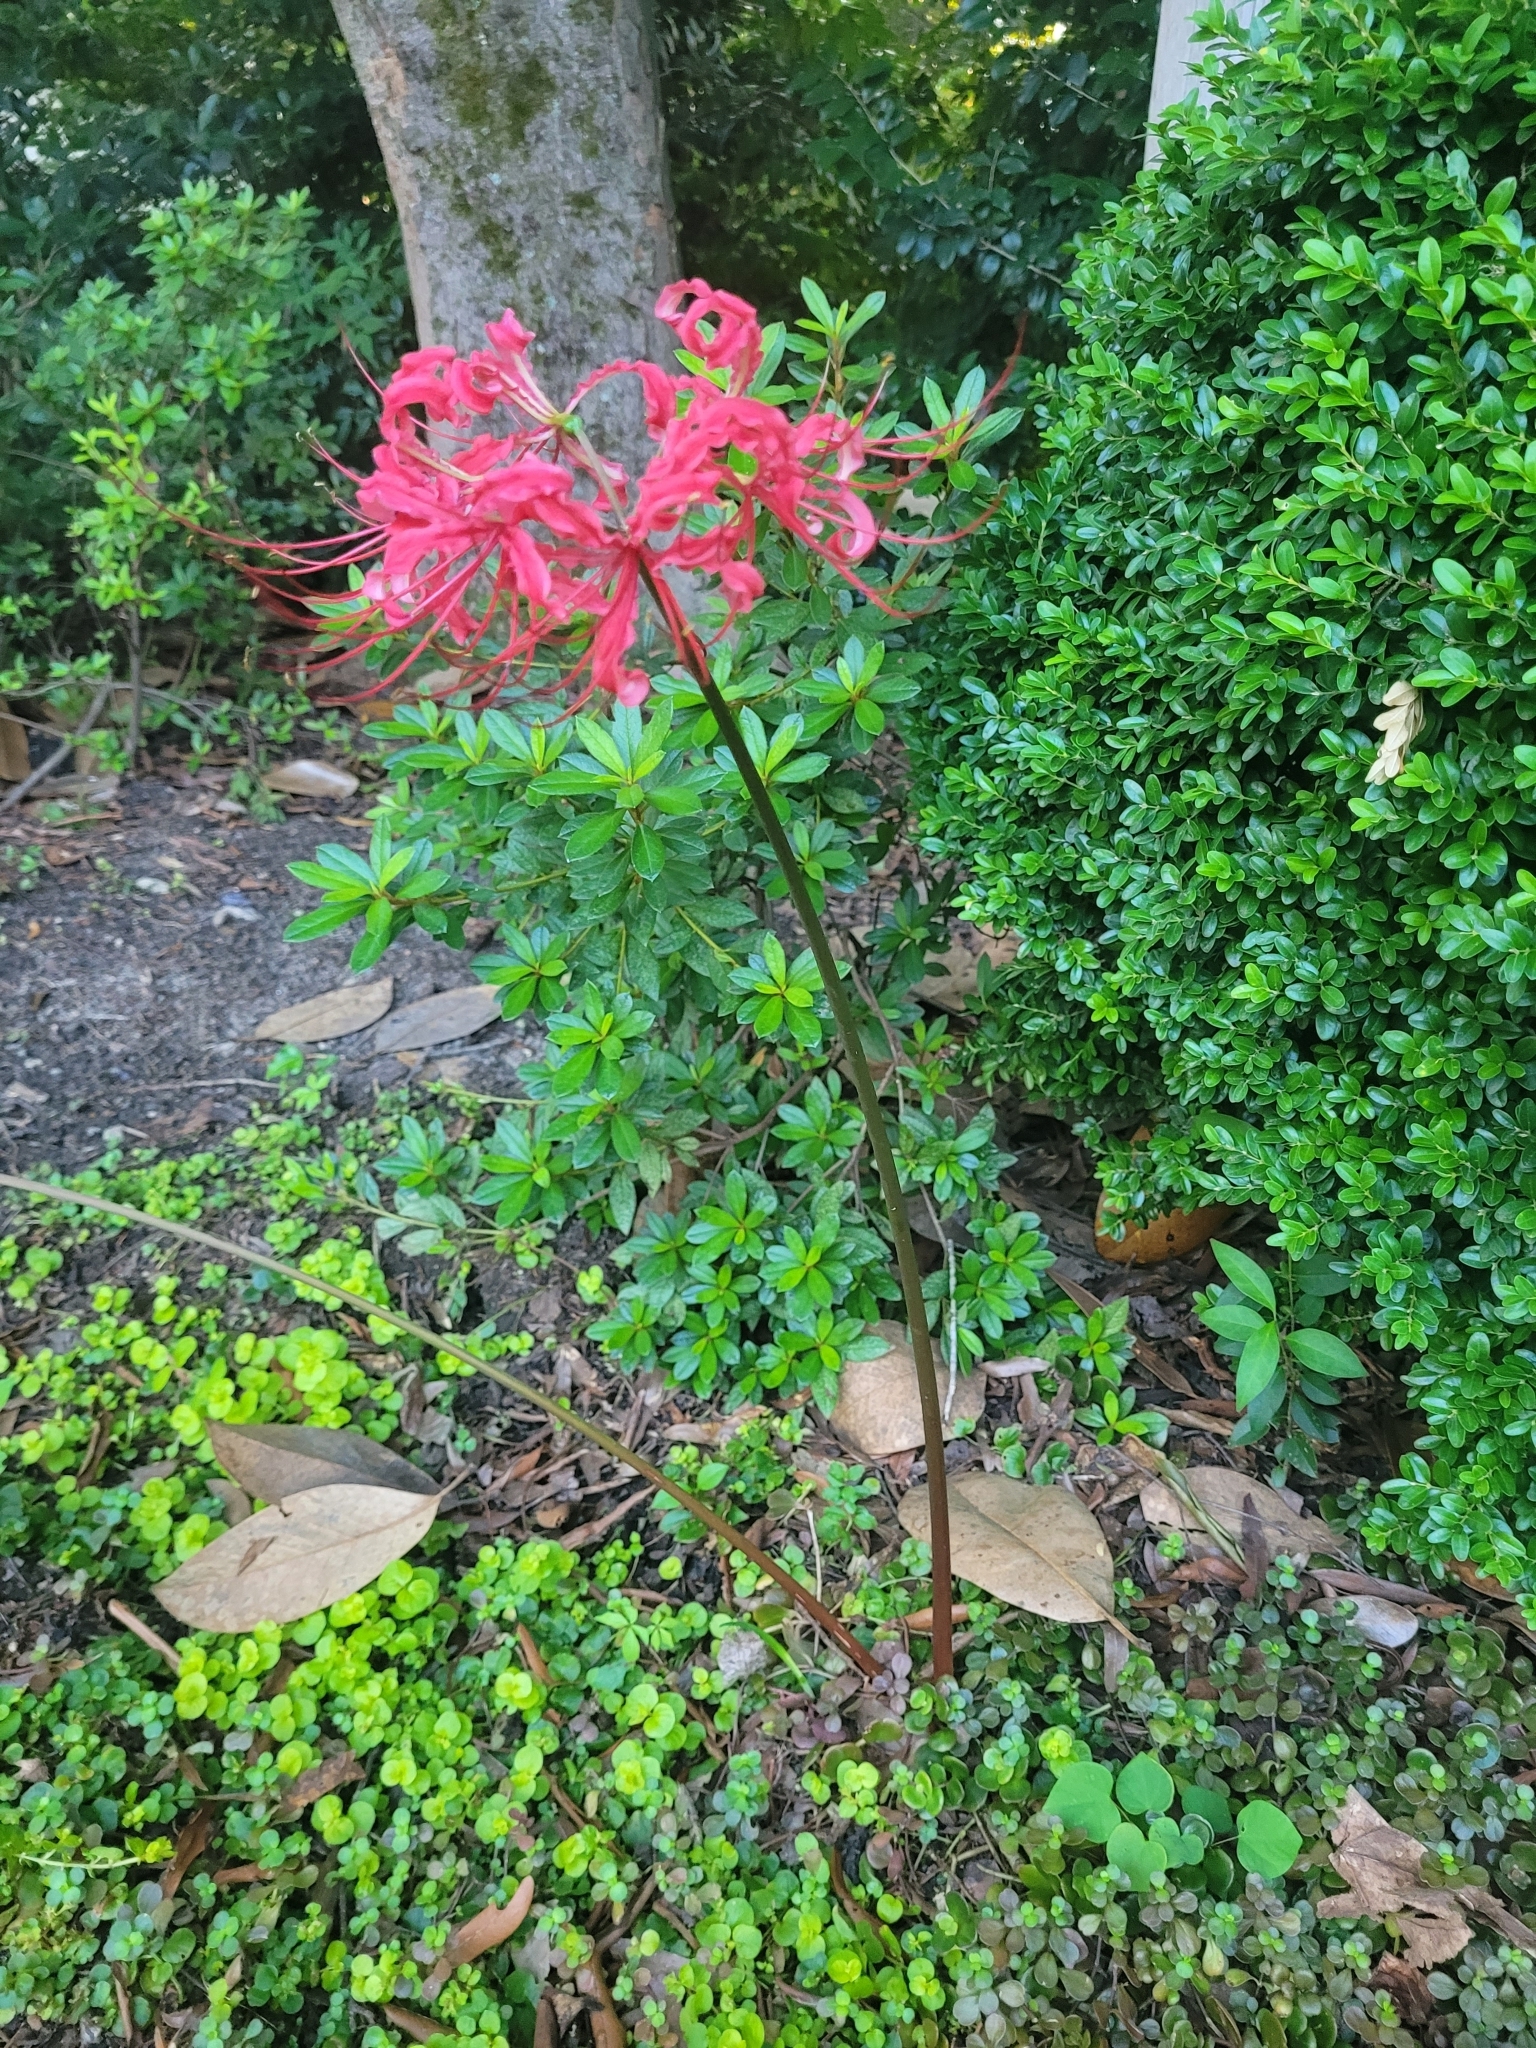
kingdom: Plantae
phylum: Tracheophyta
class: Liliopsida
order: Asparagales
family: Amaryllidaceae
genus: Lycoris
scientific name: Lycoris radiata
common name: Red spider lily
